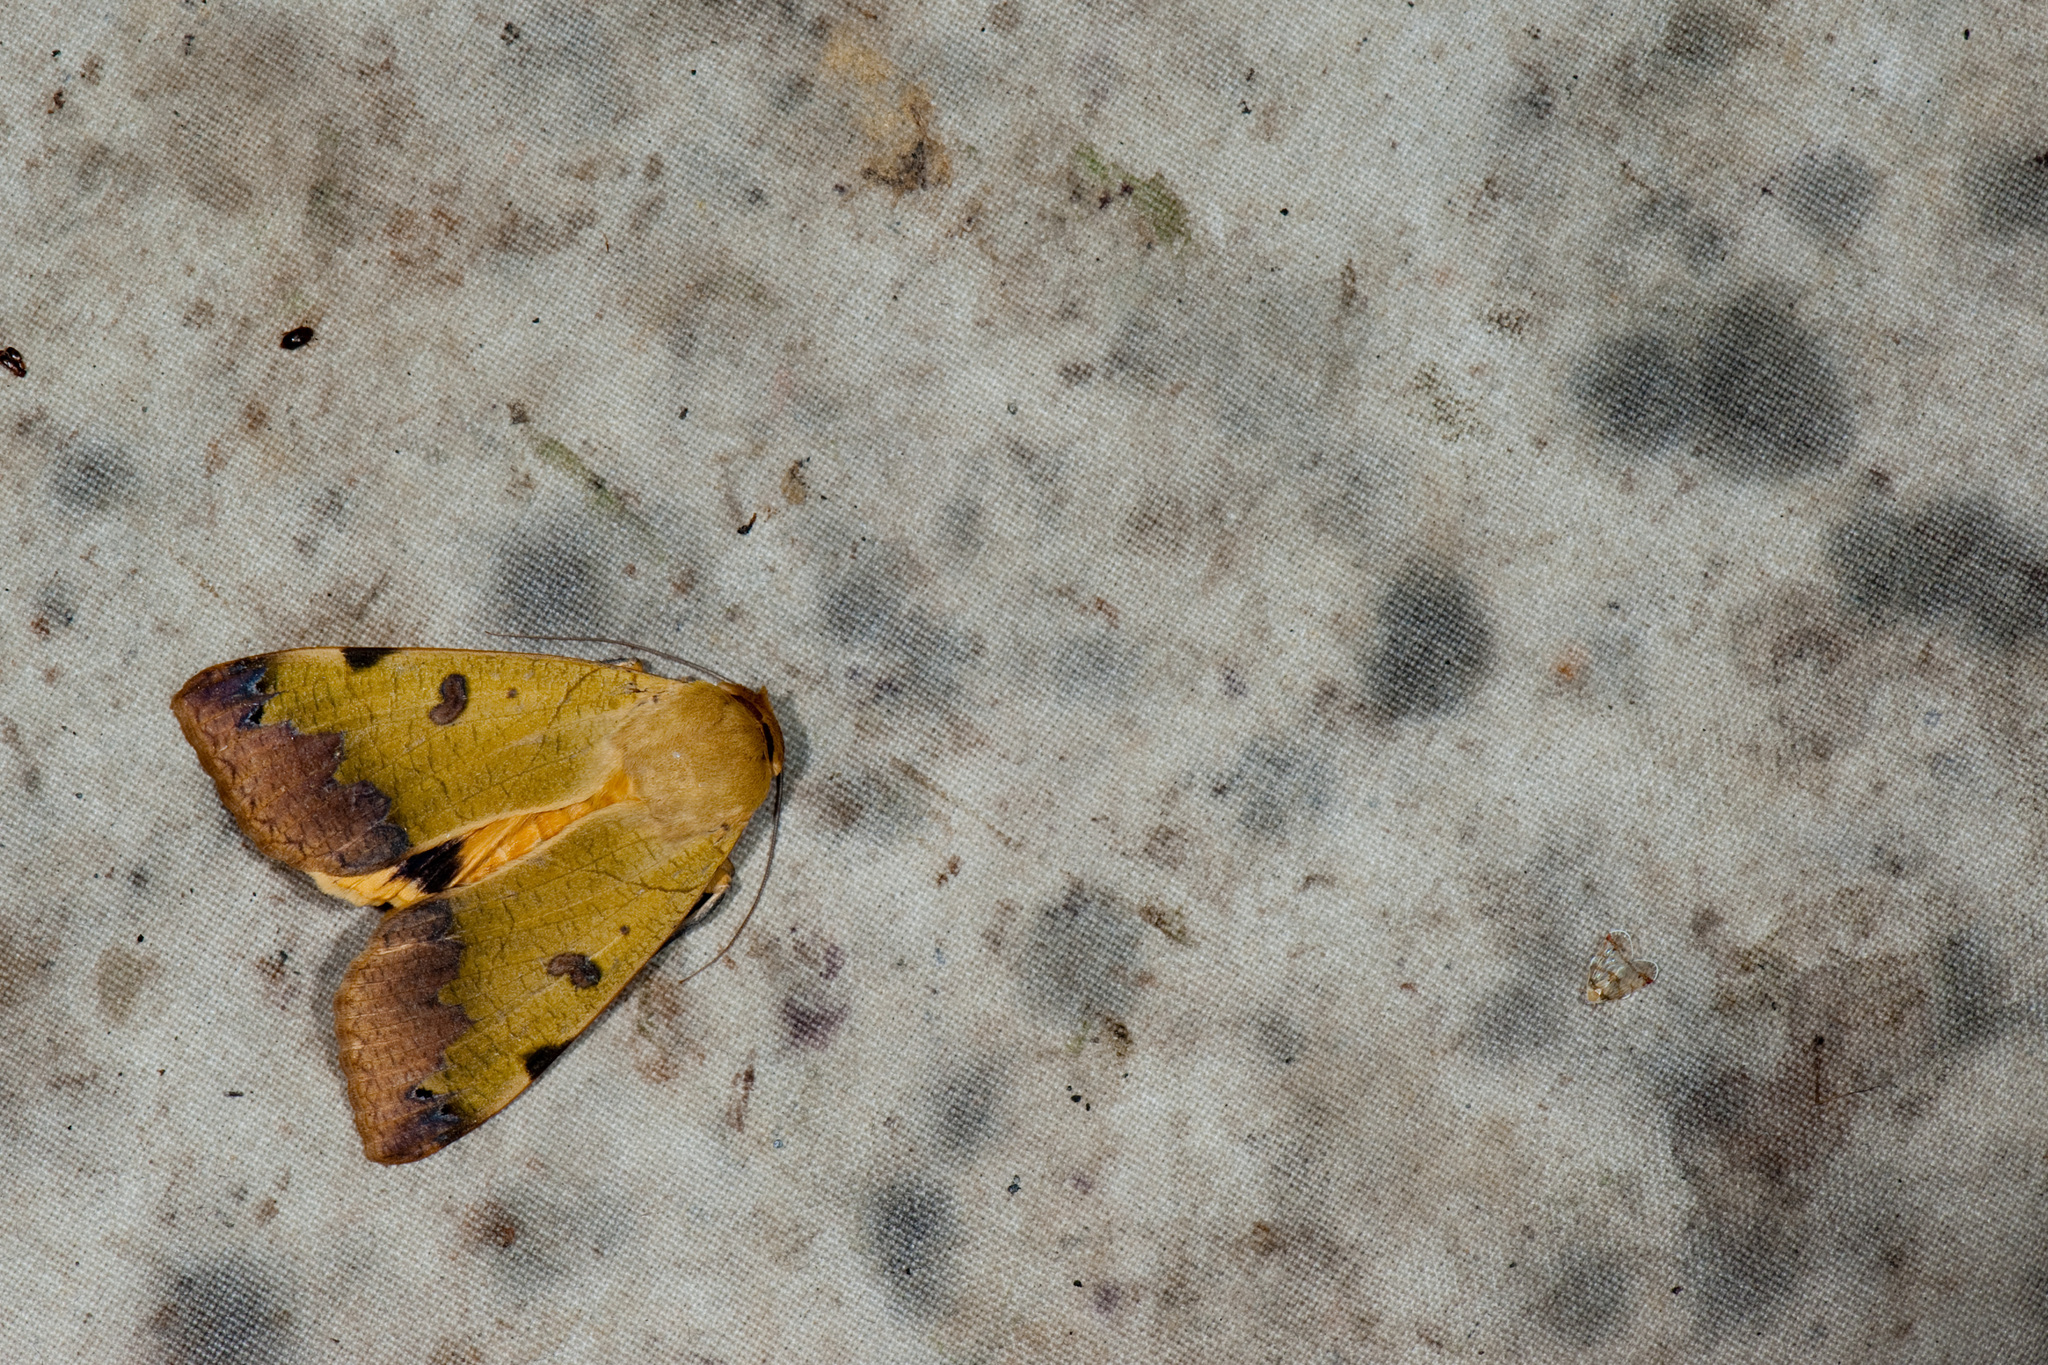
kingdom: Animalia
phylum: Arthropoda
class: Insecta
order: Lepidoptera
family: Erebidae
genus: Ophiusa
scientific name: Ophiusa tirhaca
